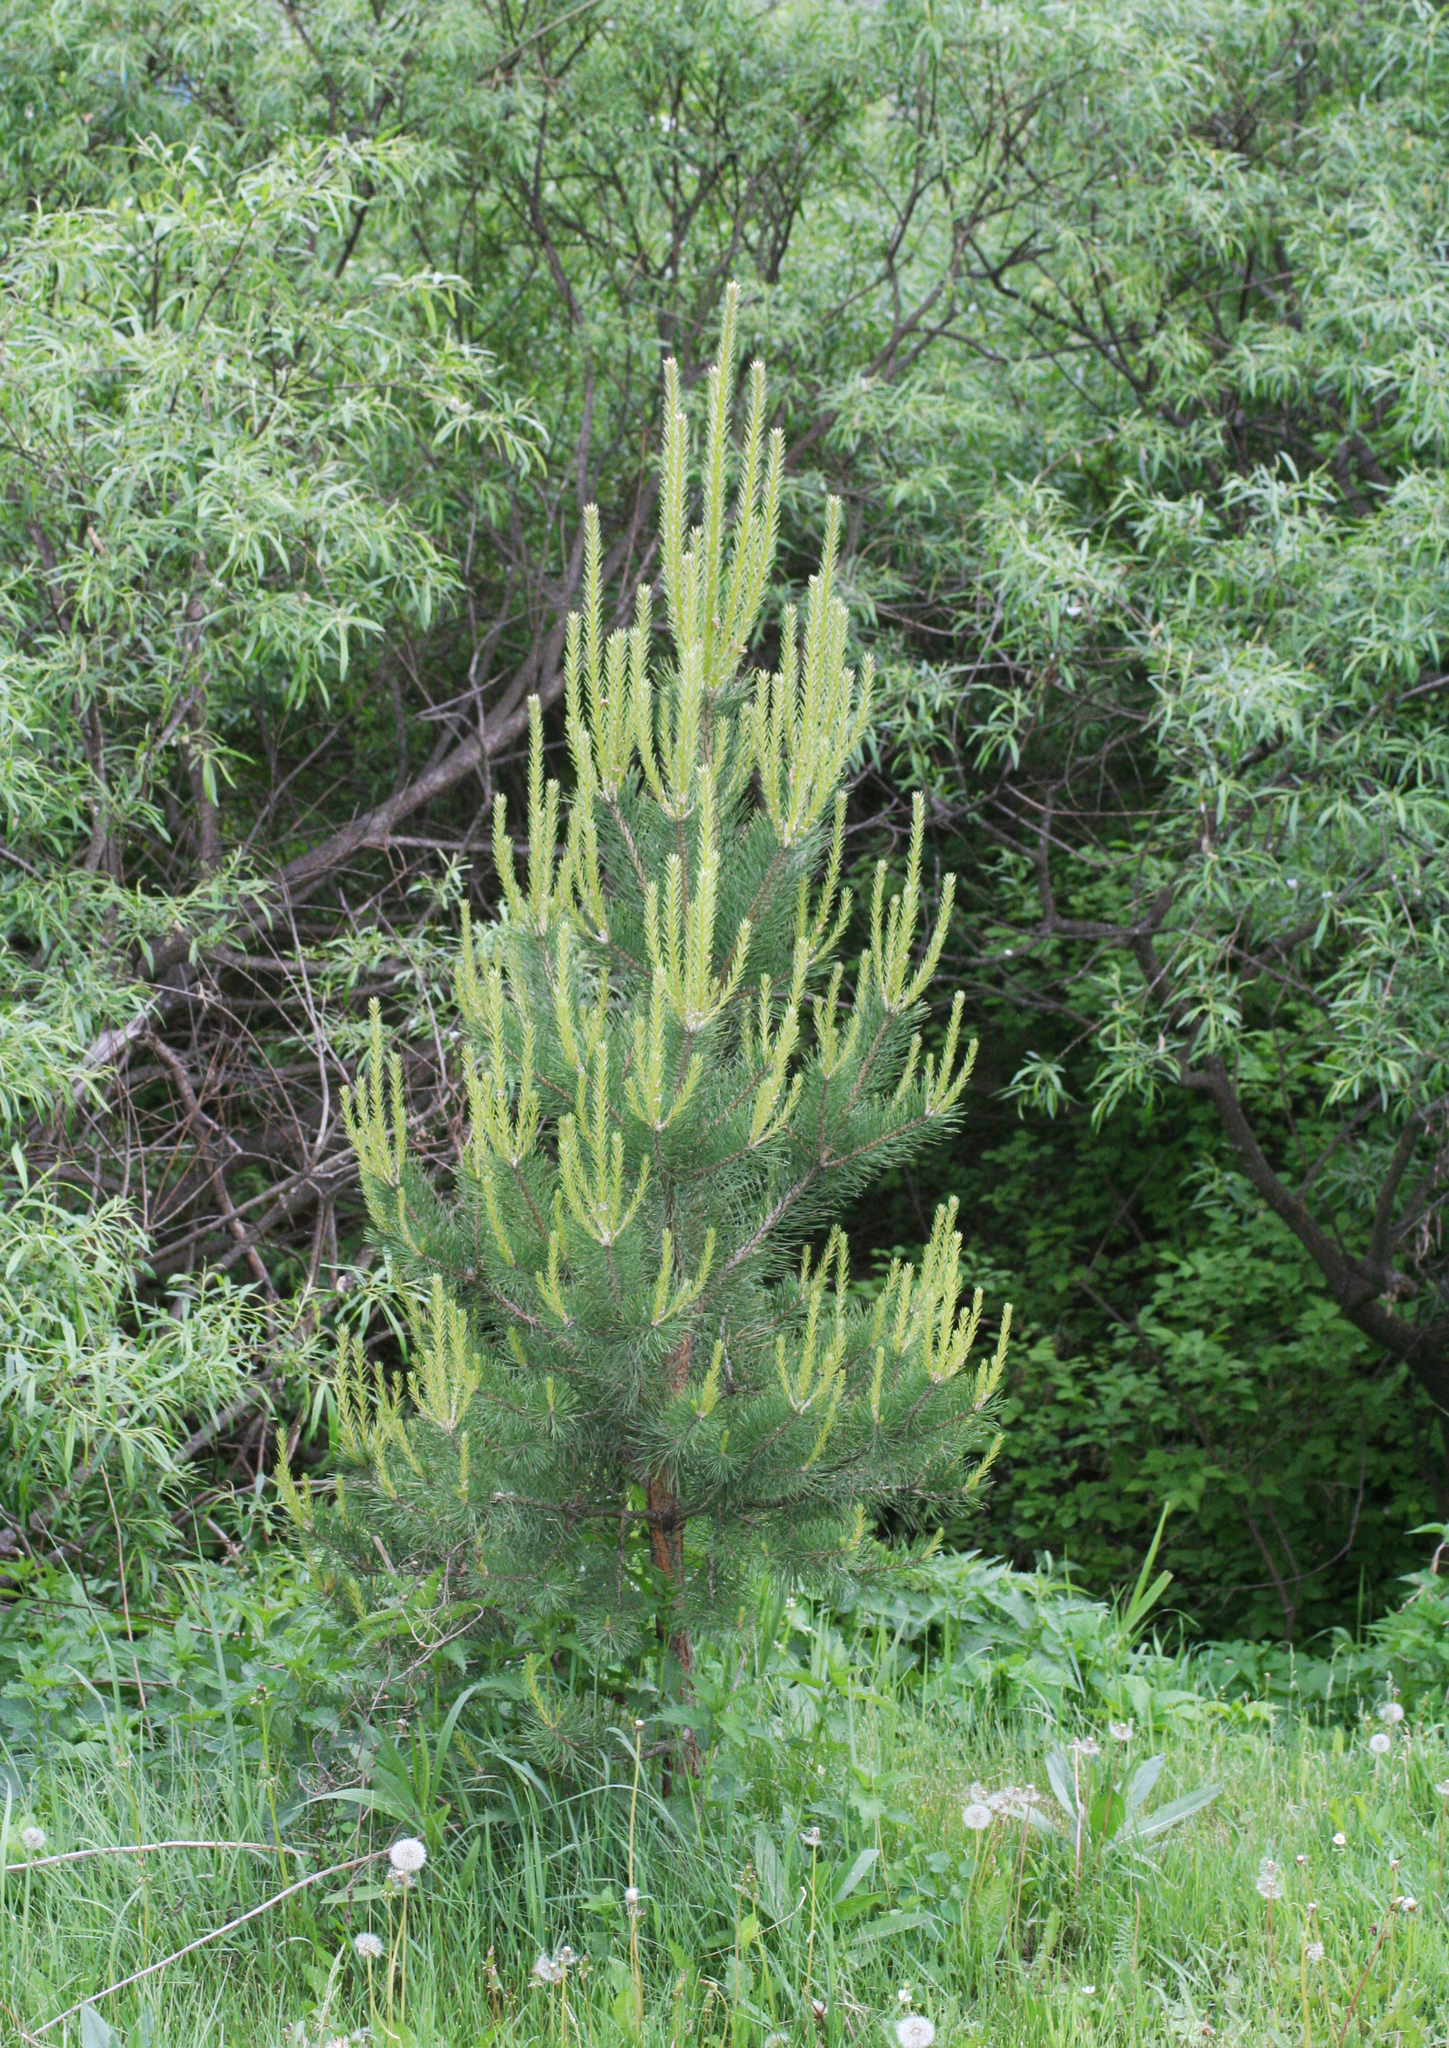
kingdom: Plantae
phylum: Tracheophyta
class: Pinopsida
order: Pinales
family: Pinaceae
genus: Pinus
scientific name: Pinus sylvestris
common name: Scots pine
